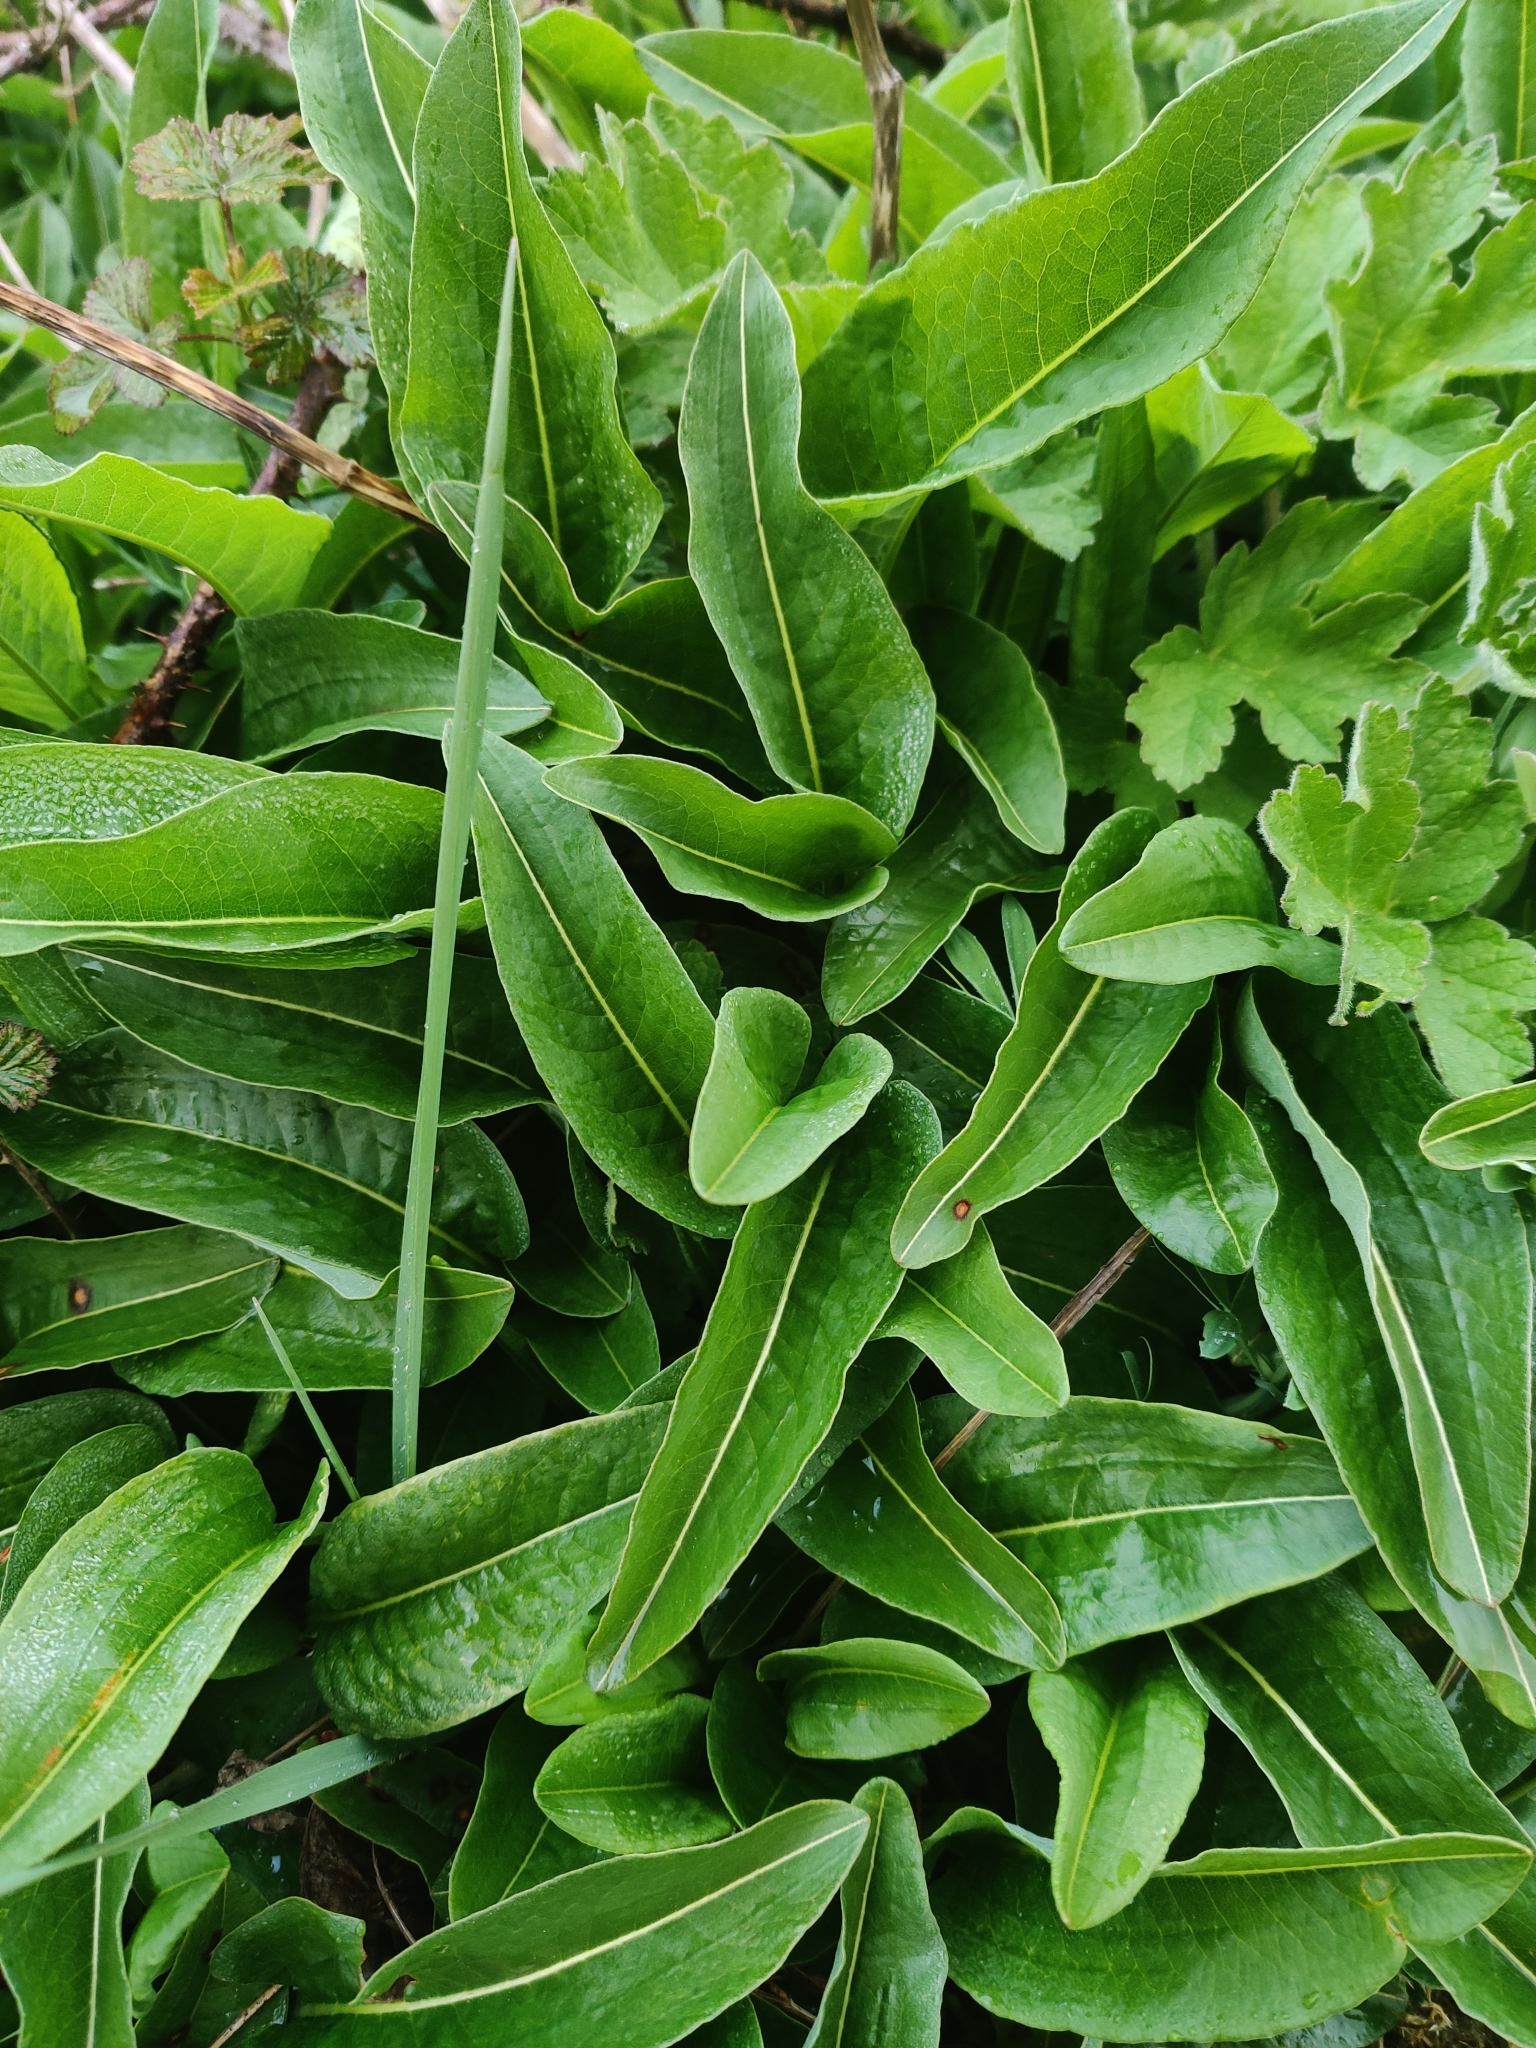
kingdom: Plantae
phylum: Tracheophyta
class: Magnoliopsida
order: Caryophyllales
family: Polygonaceae
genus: Bistorta
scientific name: Bistorta officinalis
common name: Common bistort
